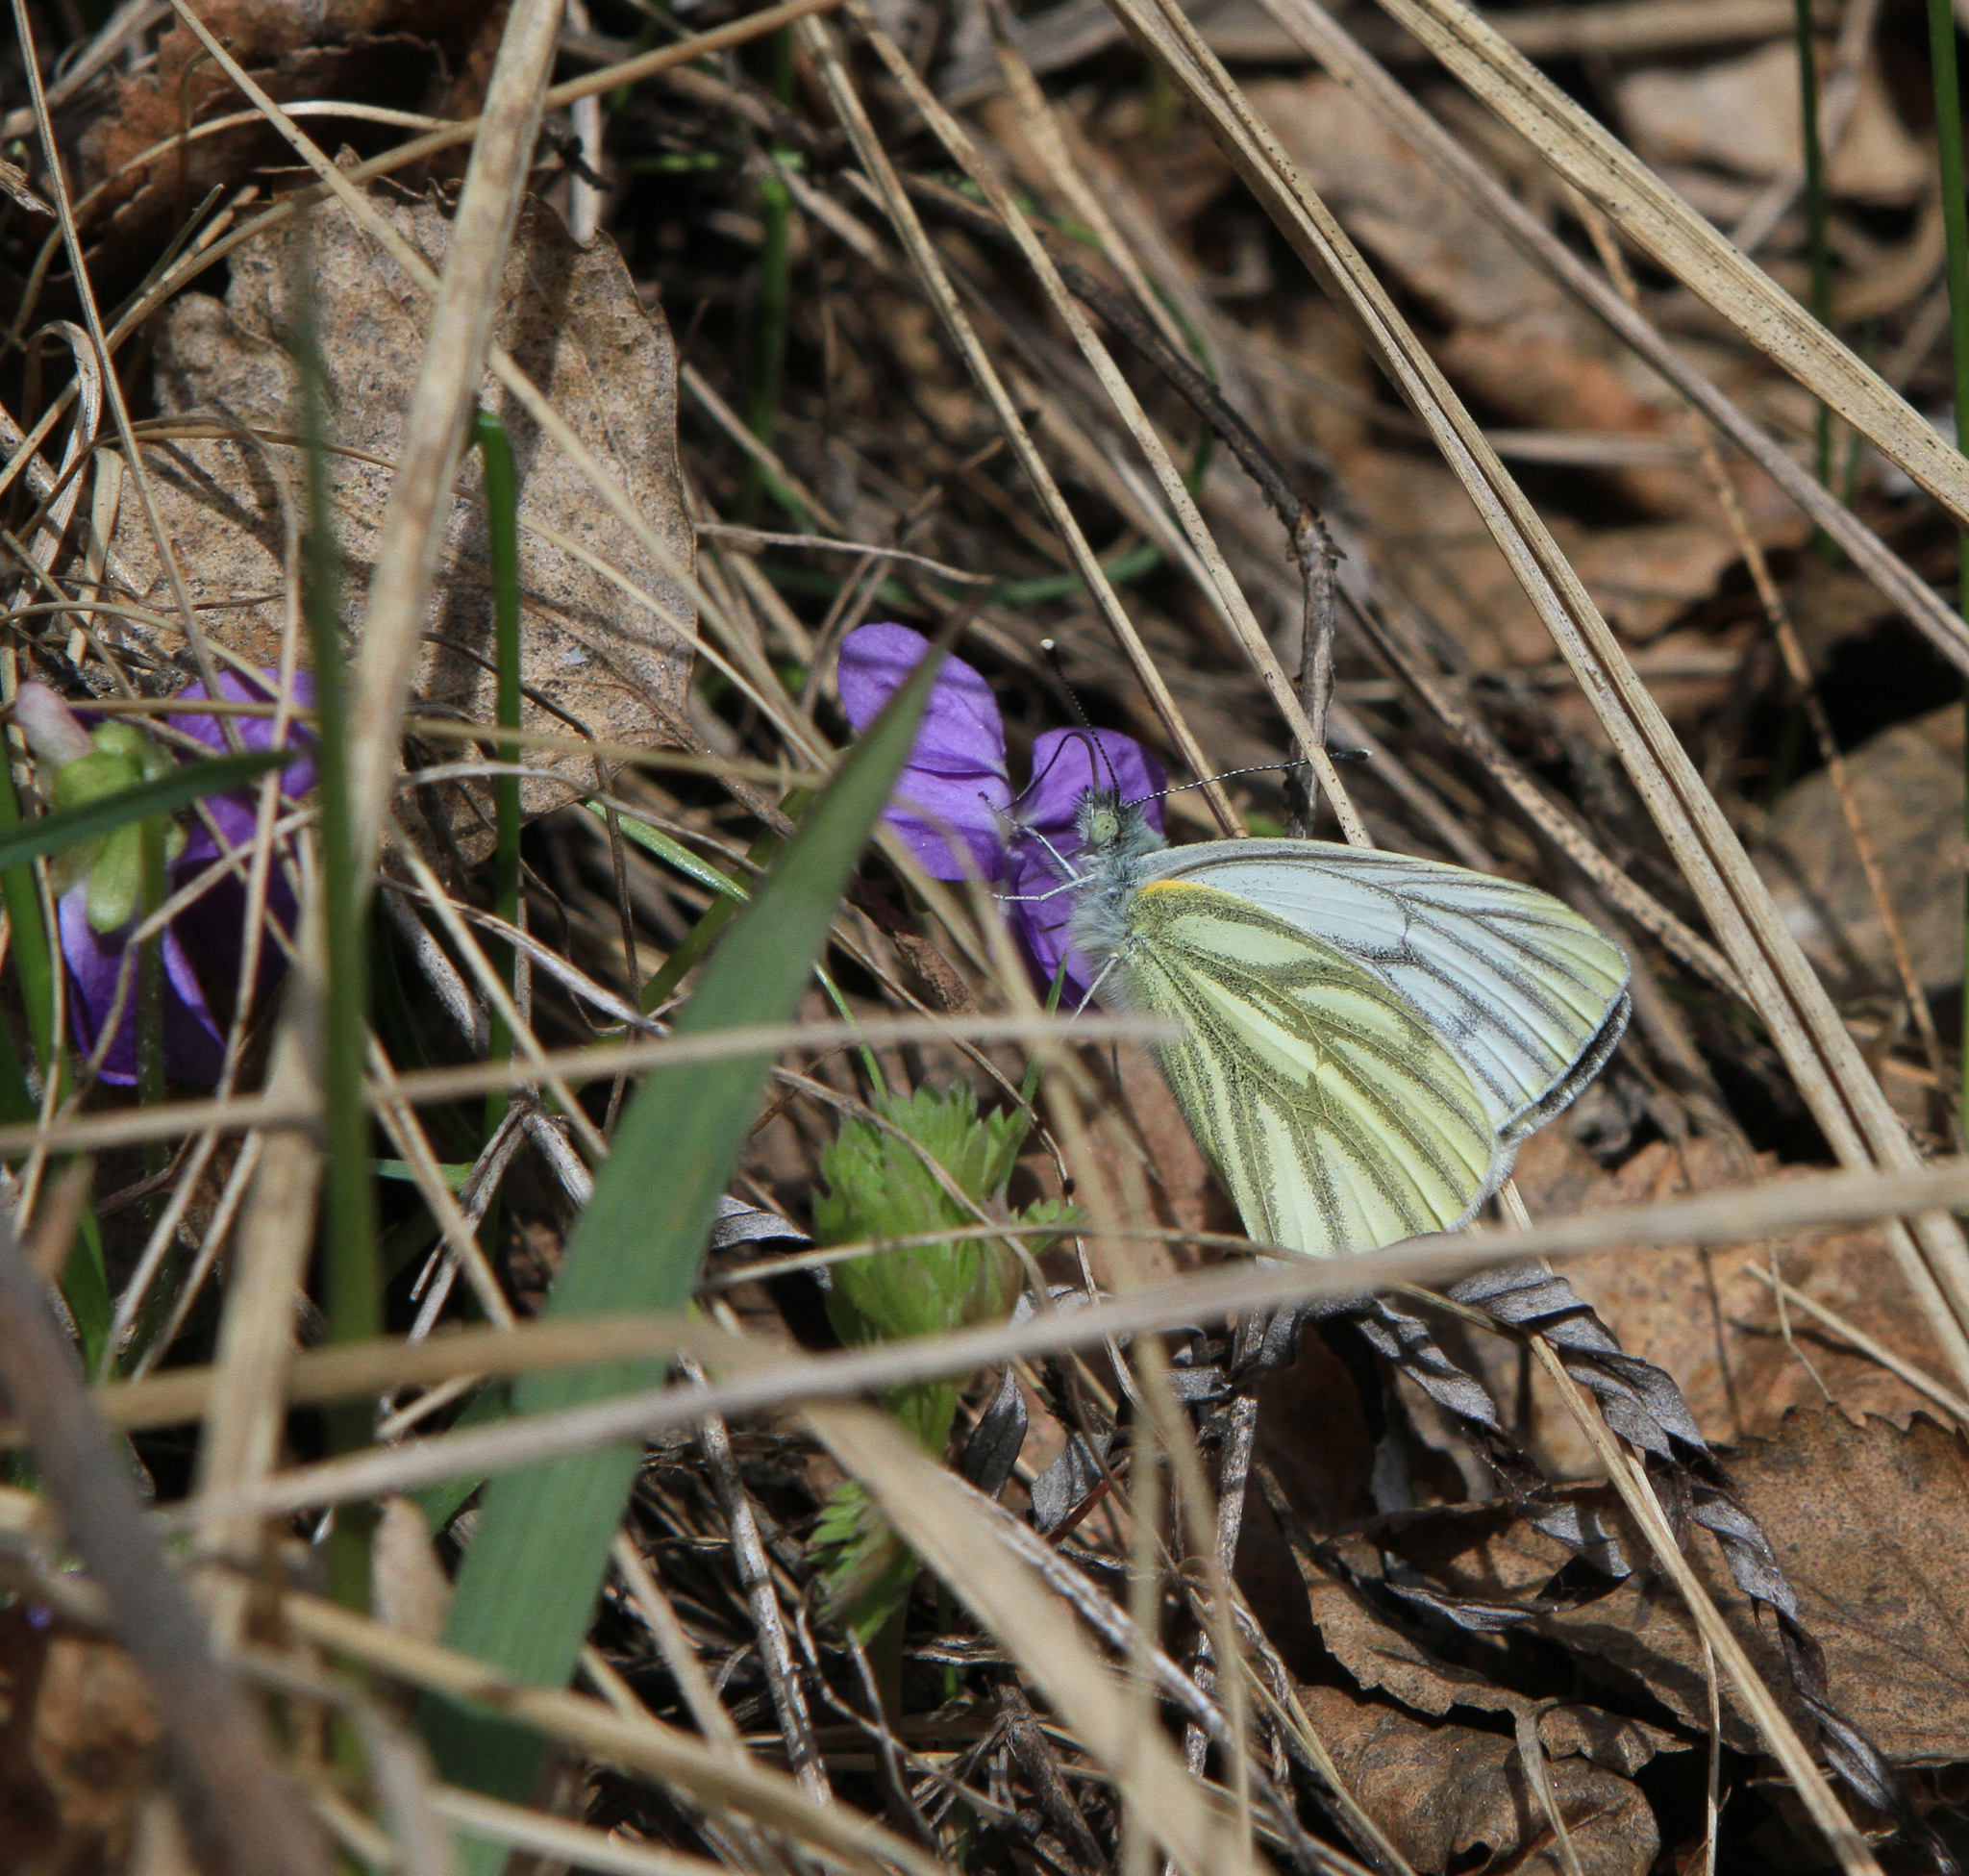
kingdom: Plantae
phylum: Tracheophyta
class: Magnoliopsida
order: Malpighiales
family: Violaceae
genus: Viola
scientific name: Viola hirta
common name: Hairy violet
